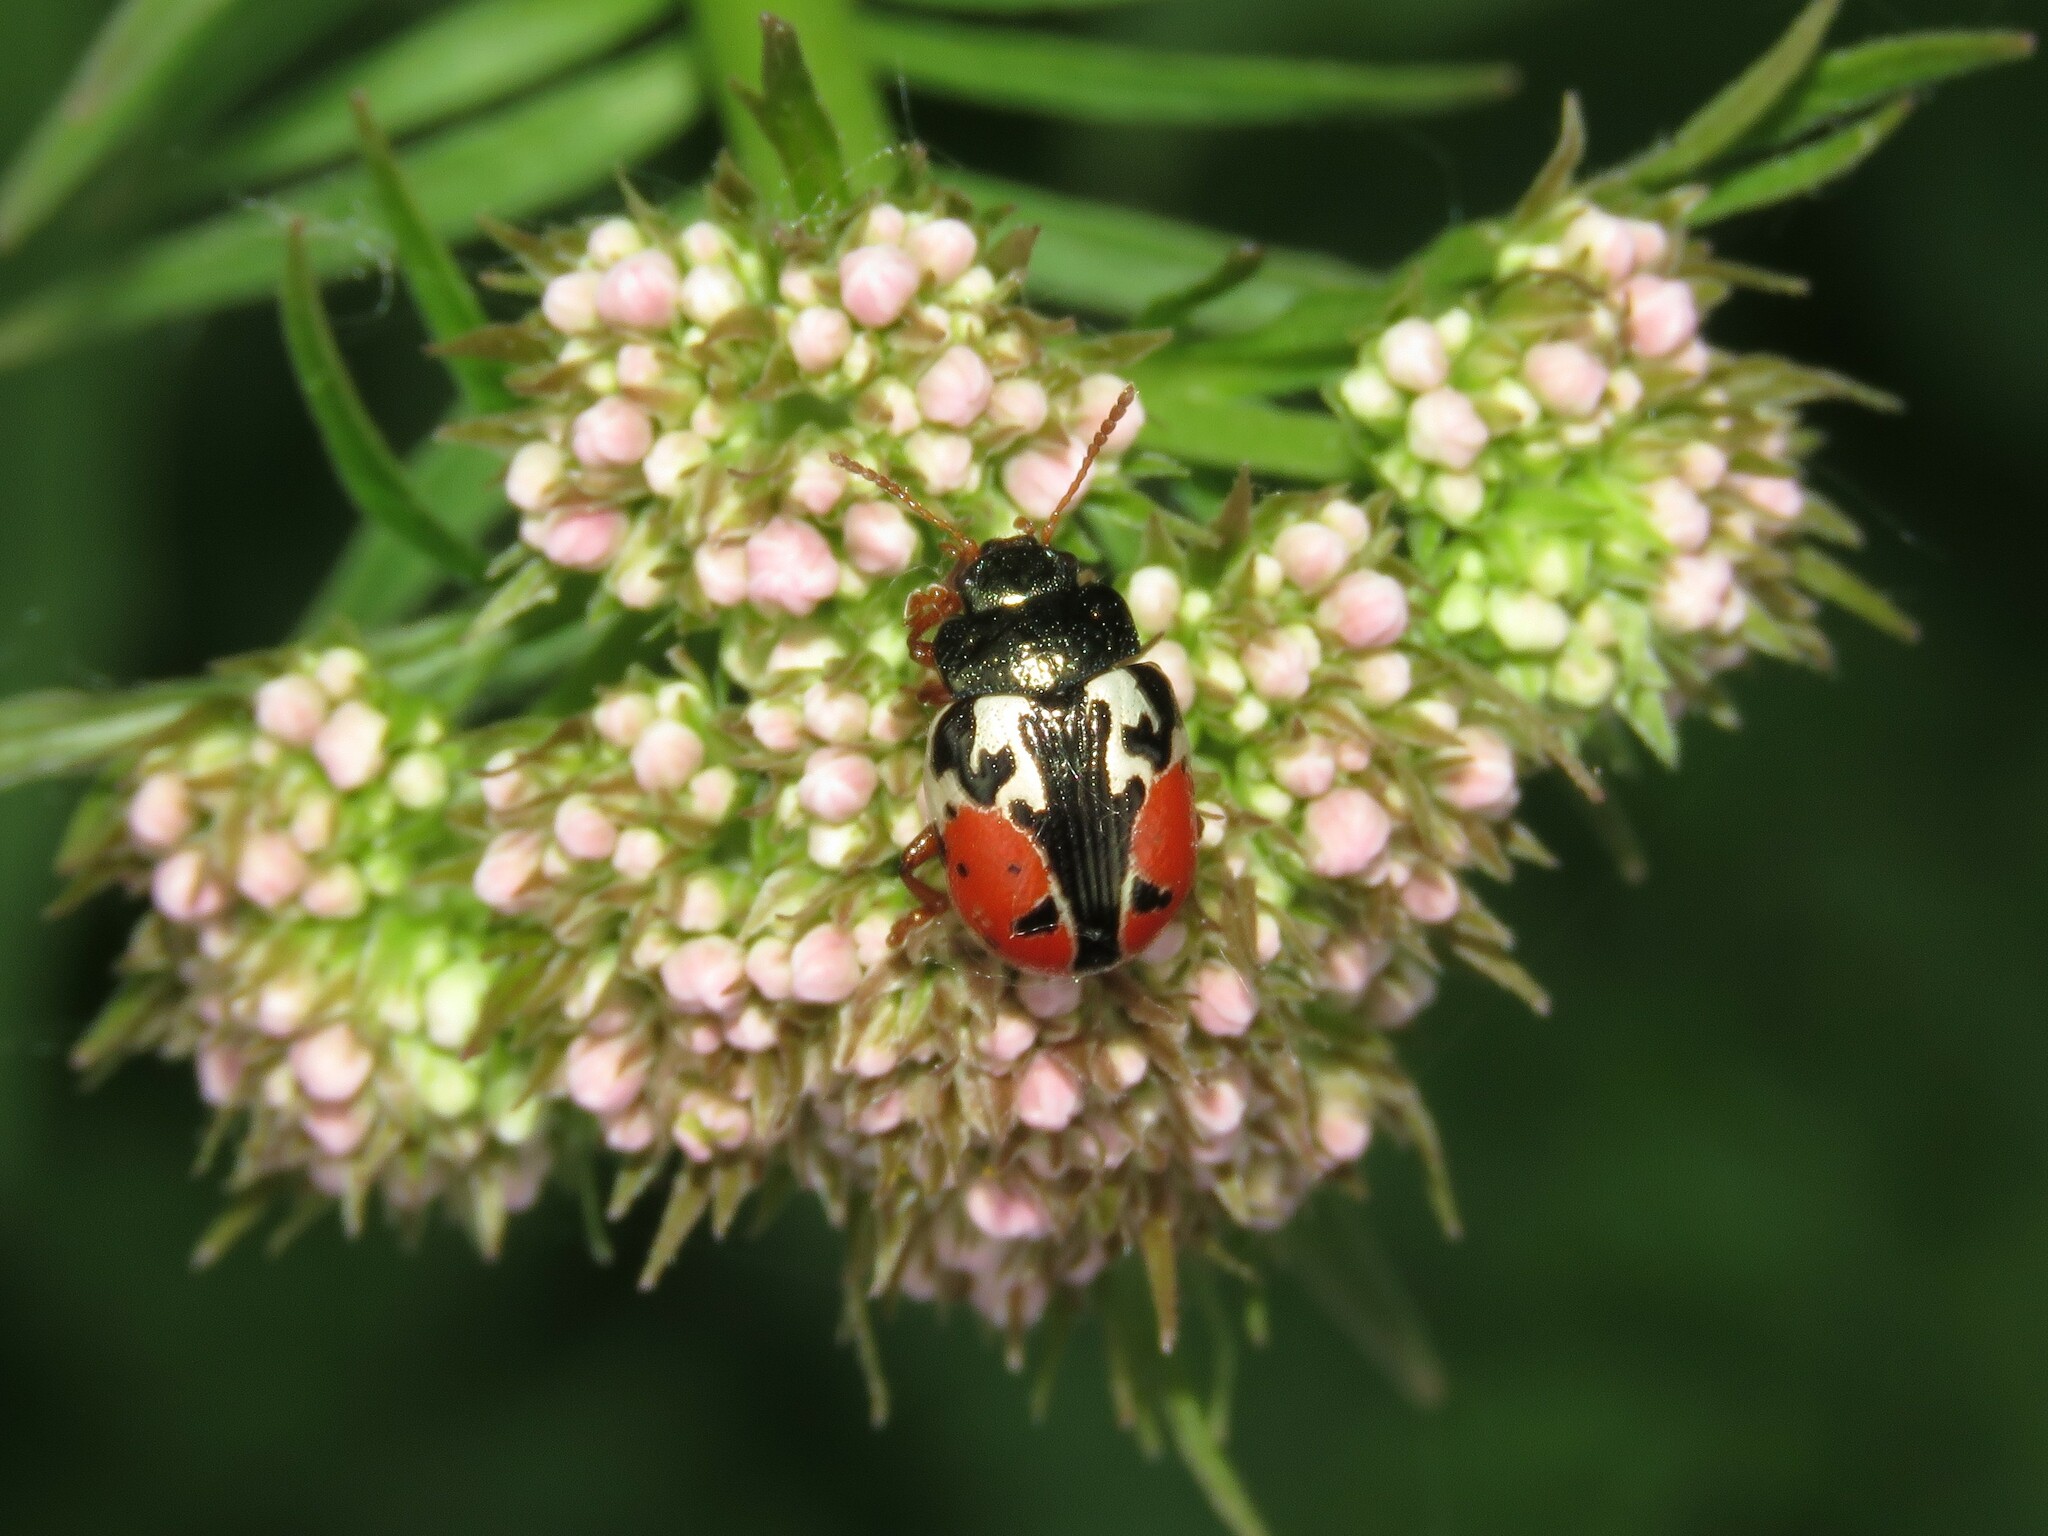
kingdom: Animalia
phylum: Arthropoda
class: Insecta
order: Coleoptera
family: Chrysomelidae
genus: Calligrapha
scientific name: Calligrapha rowena
